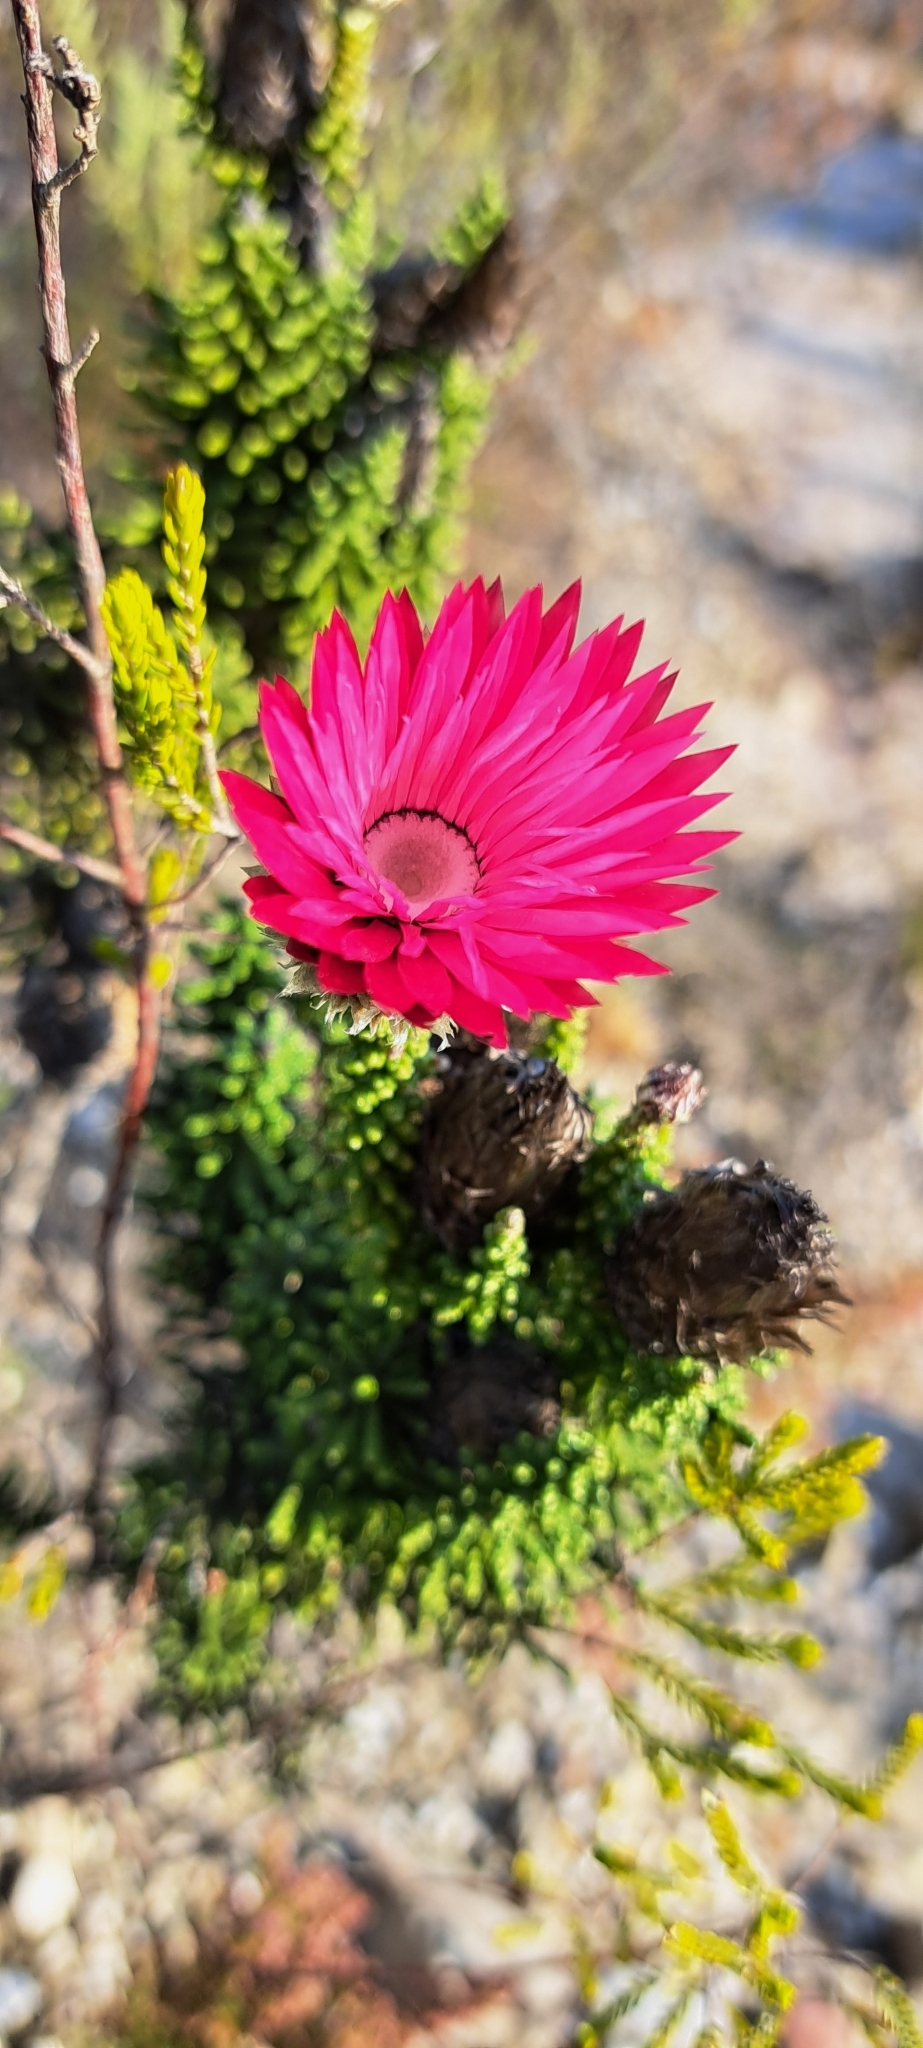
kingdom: Plantae
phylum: Tracheophyta
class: Magnoliopsida
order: Asterales
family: Asteraceae
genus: Phaenocoma
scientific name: Phaenocoma prolifera
